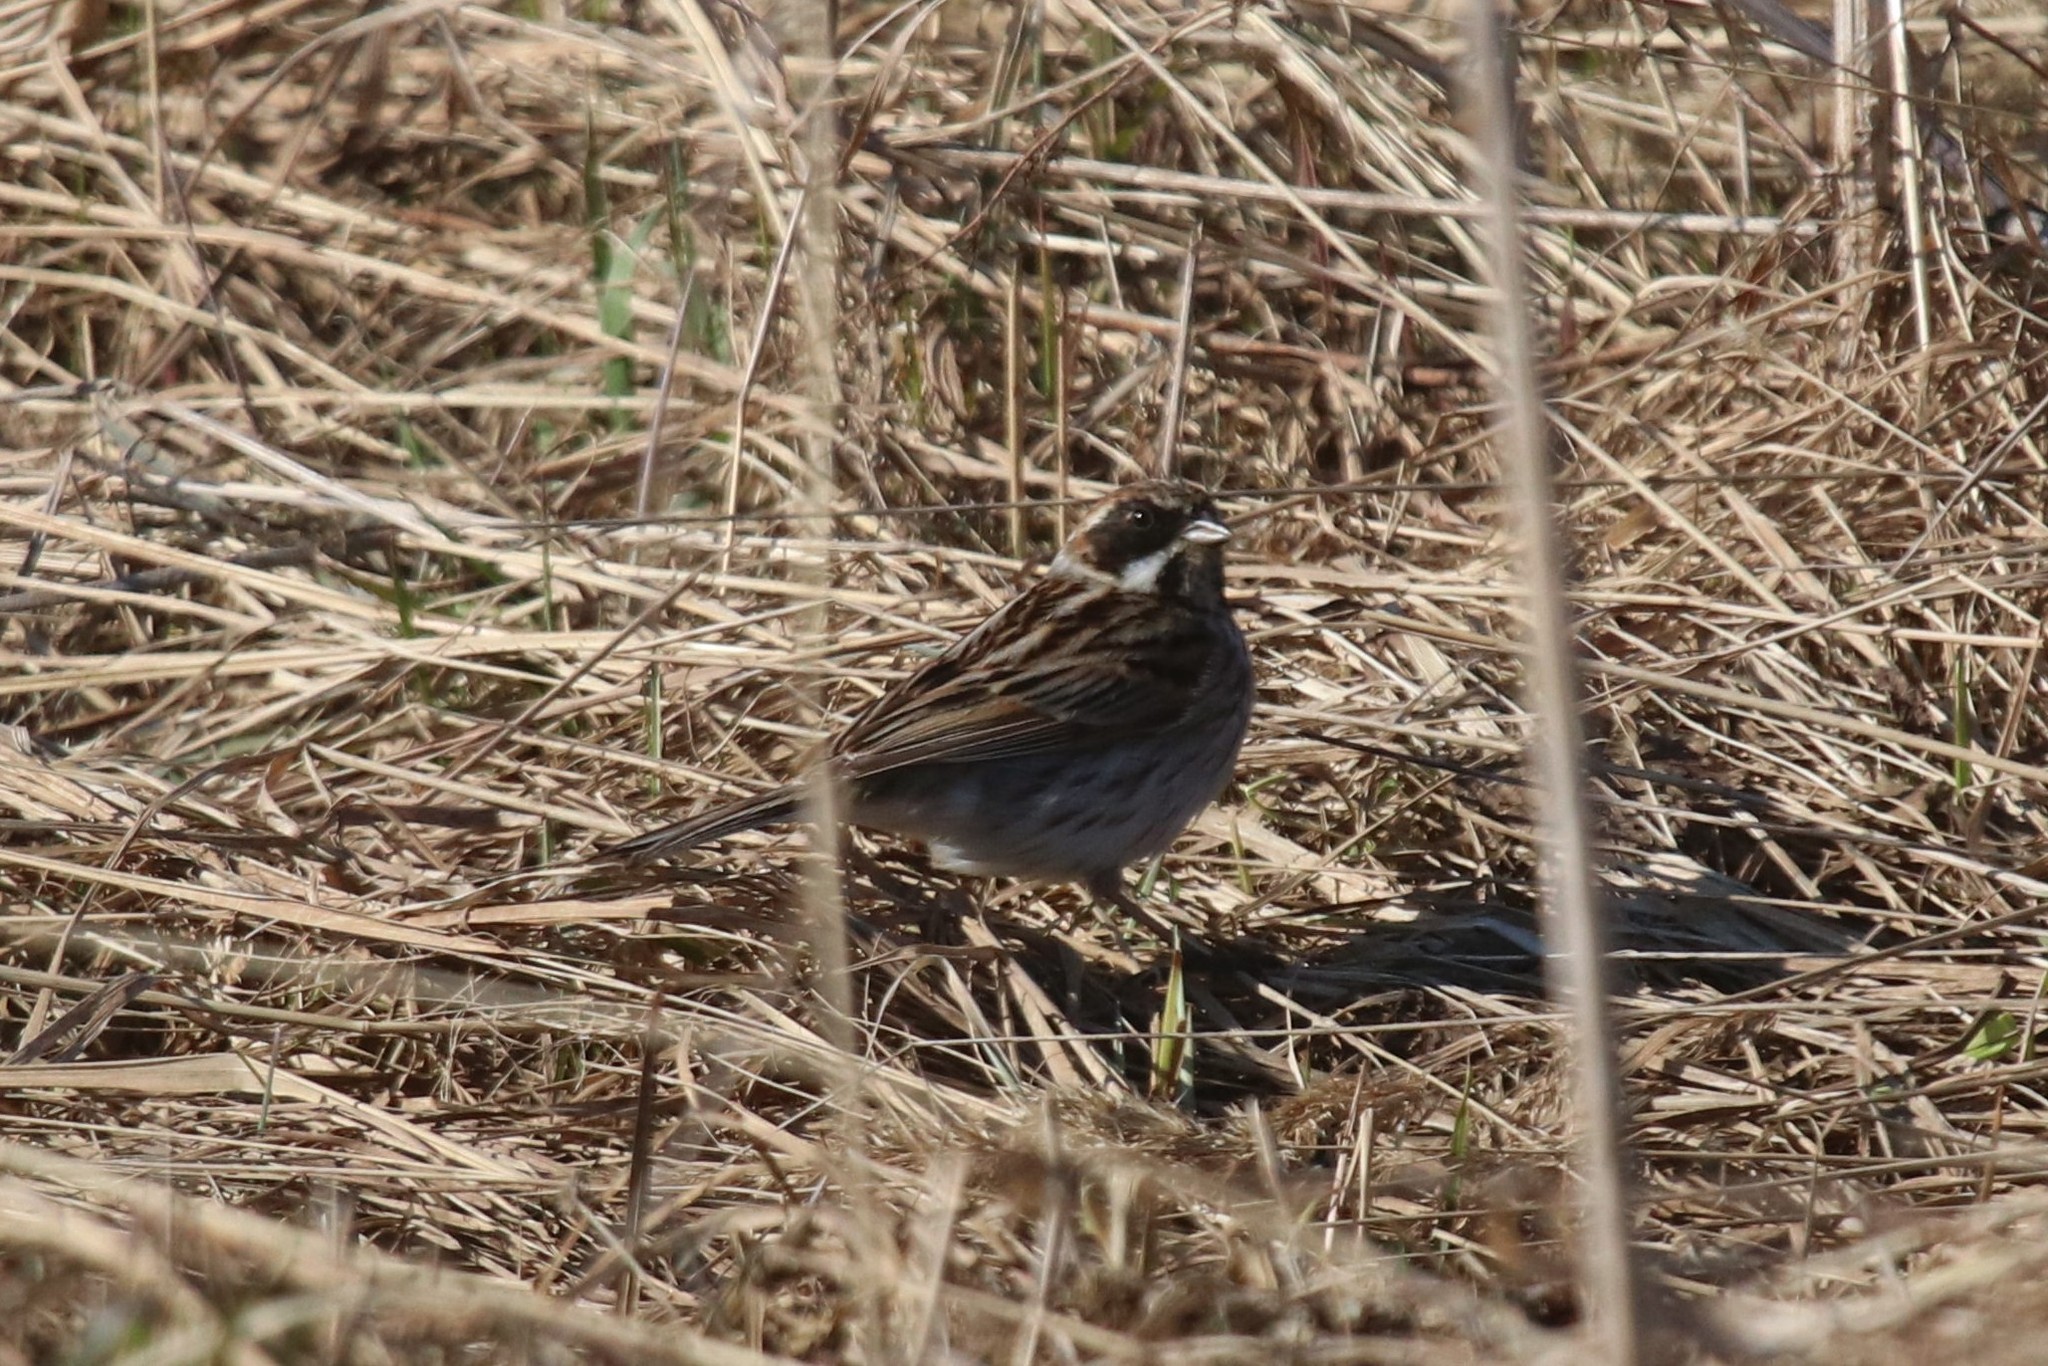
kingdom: Animalia
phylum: Chordata
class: Aves
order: Passeriformes
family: Emberizidae
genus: Emberiza
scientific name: Emberiza schoeniclus
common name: Reed bunting
